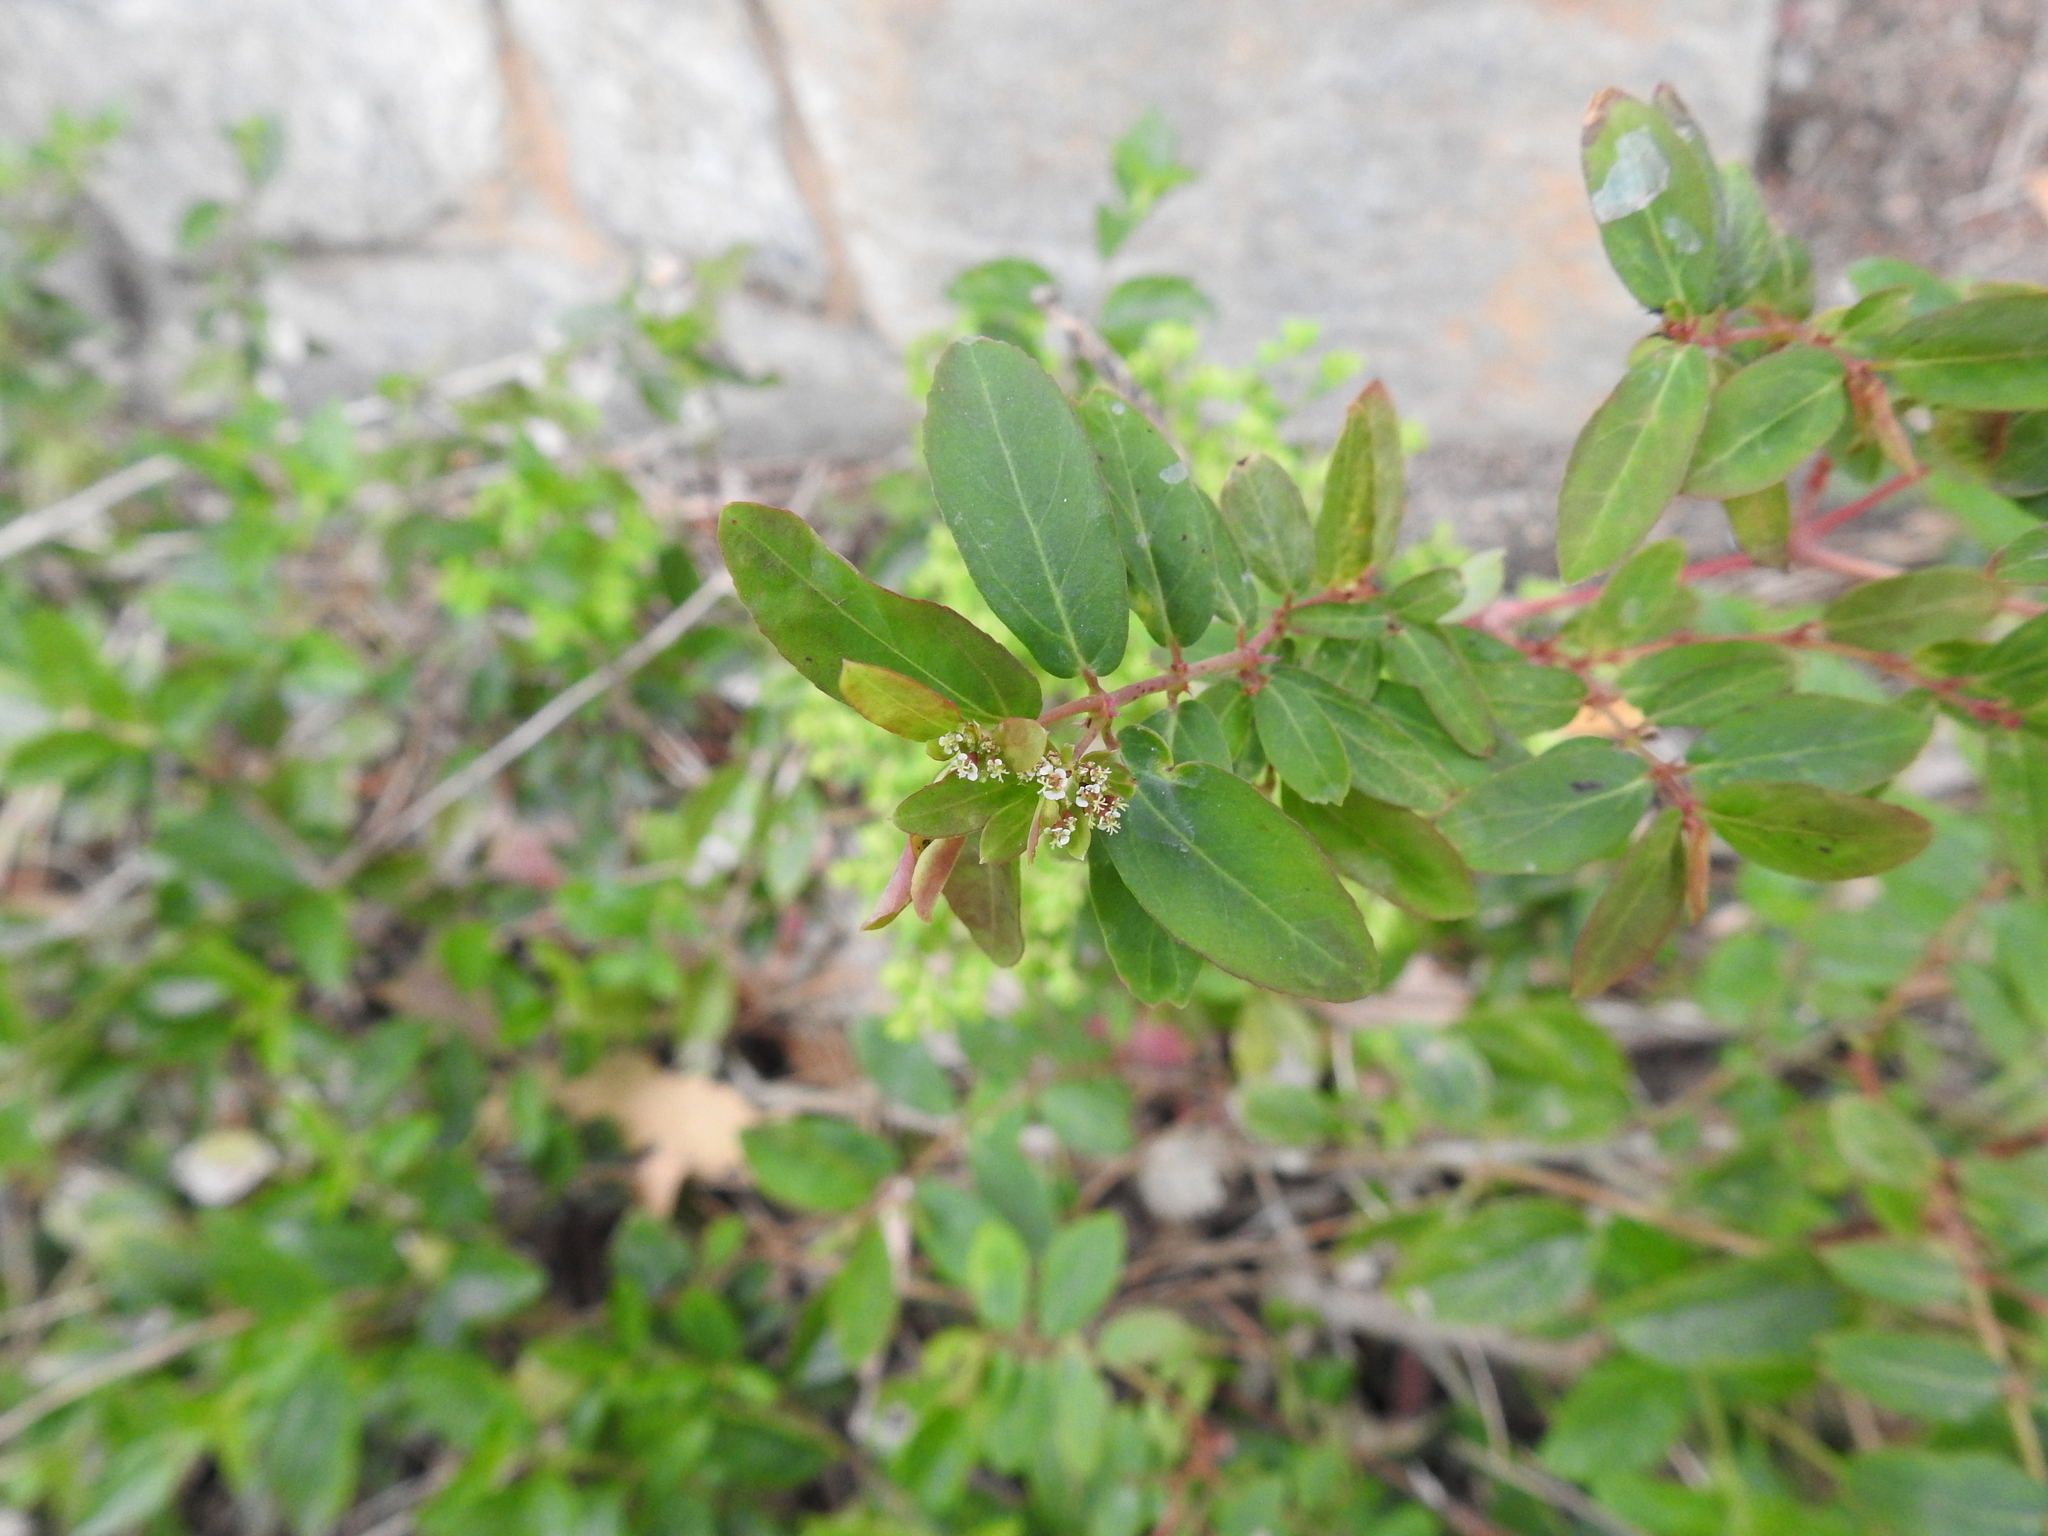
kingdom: Plantae
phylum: Tracheophyta
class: Magnoliopsida
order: Malpighiales
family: Euphorbiaceae
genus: Euphorbia
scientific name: Euphorbia hypericifolia
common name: Graceful sandmat
